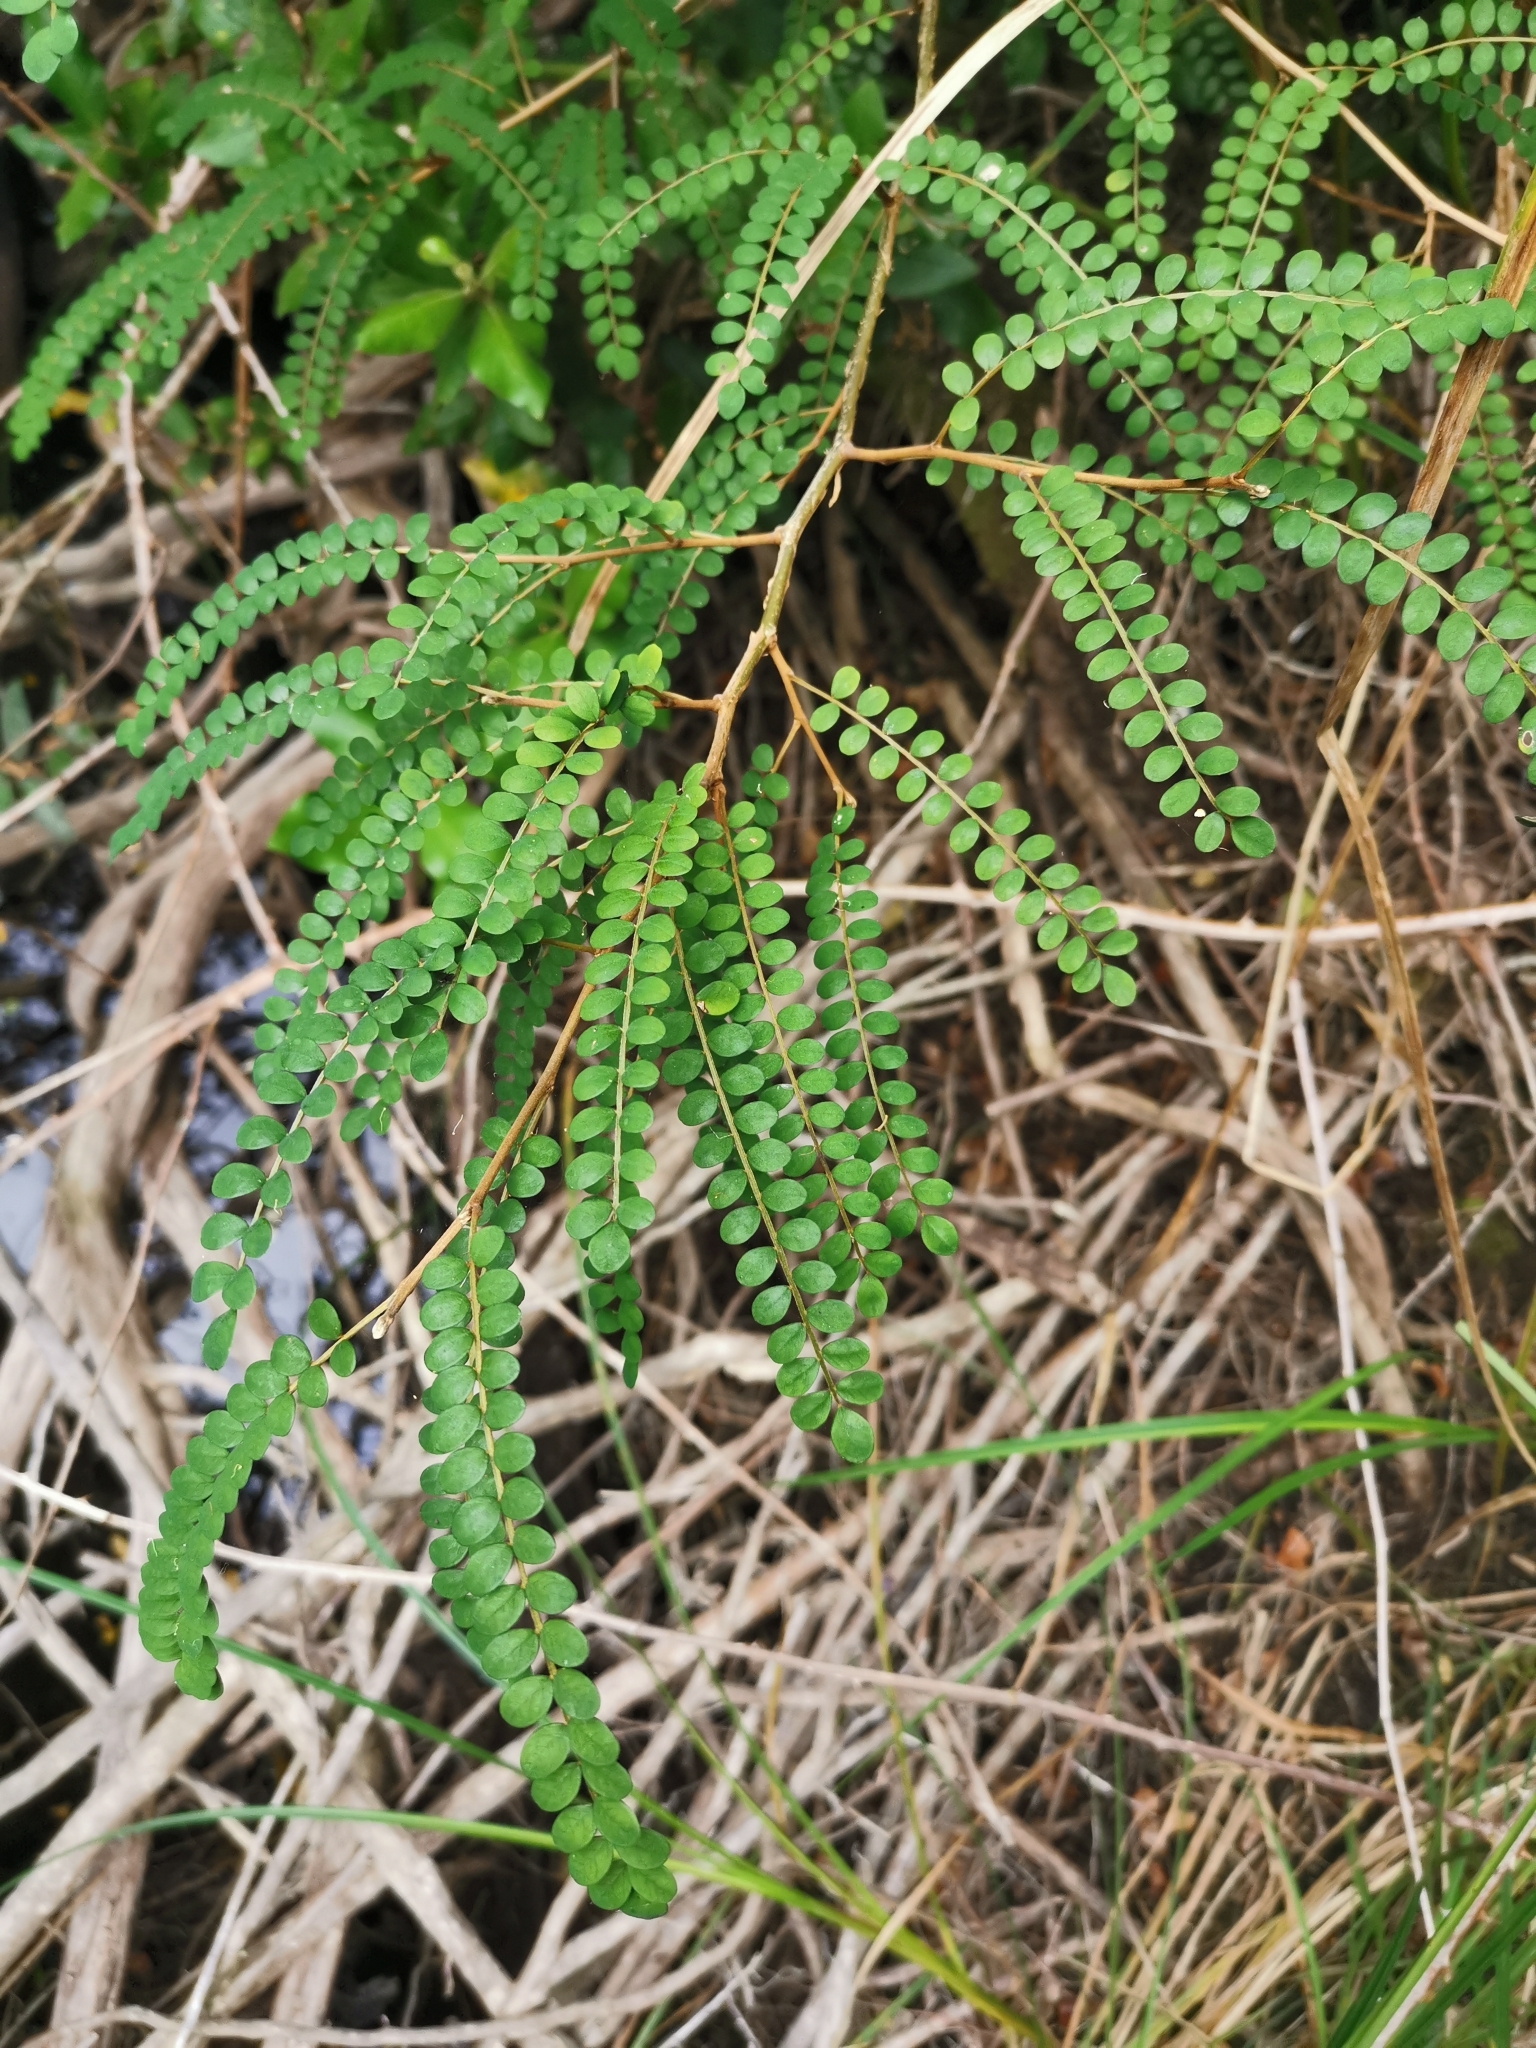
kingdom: Plantae
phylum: Tracheophyta
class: Magnoliopsida
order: Fabales
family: Fabaceae
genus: Sophora
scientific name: Sophora cassioides
